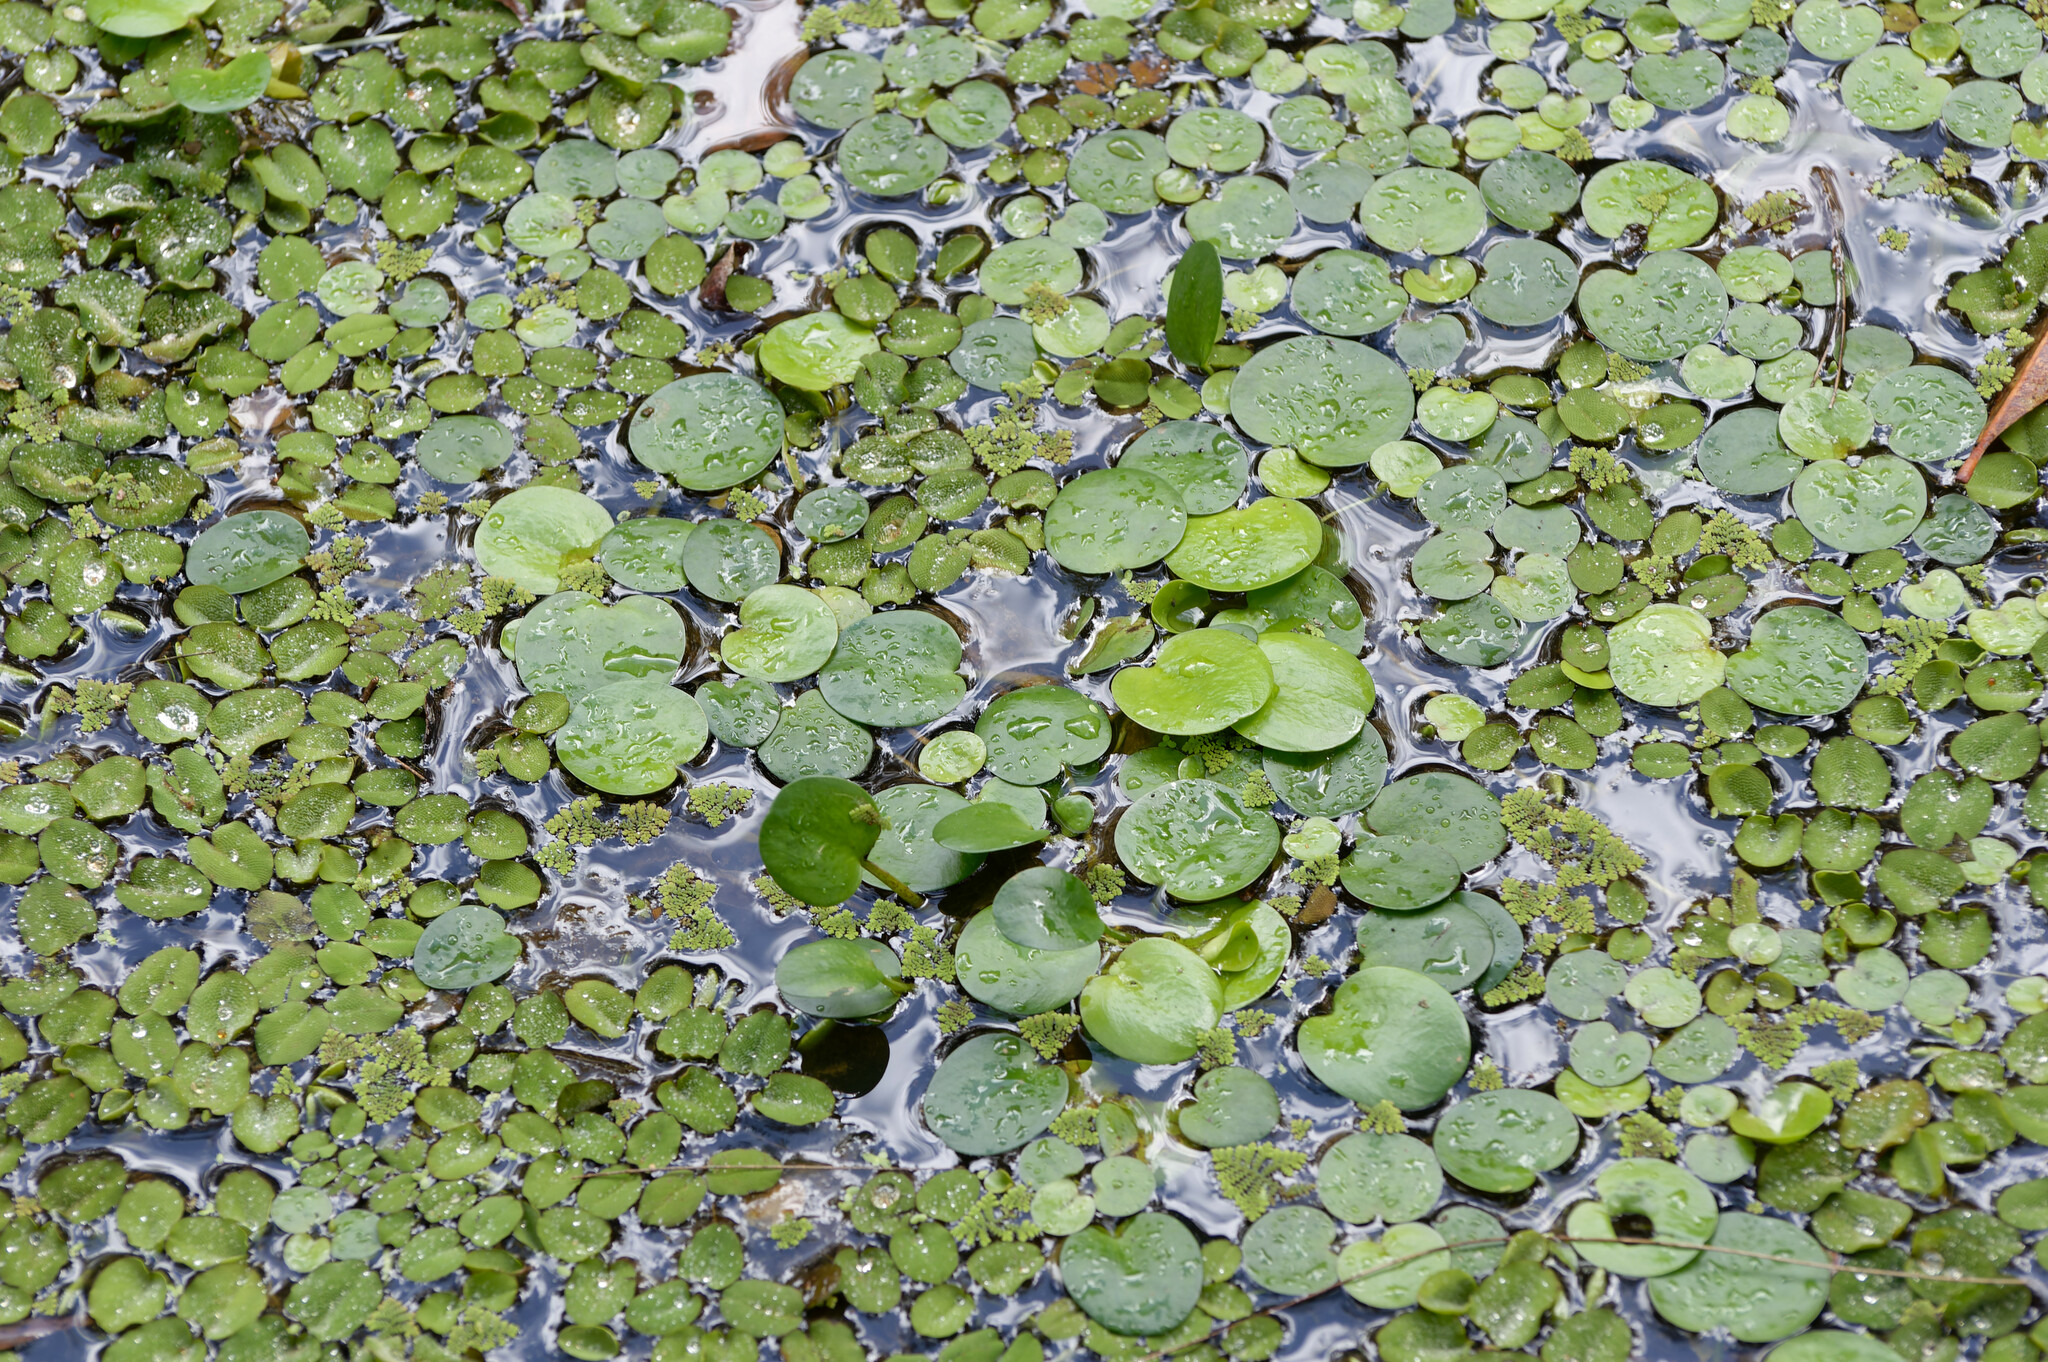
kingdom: Plantae
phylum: Tracheophyta
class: Liliopsida
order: Alismatales
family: Hydrocharitaceae
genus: Hydrocharis
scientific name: Hydrocharis laevigata
